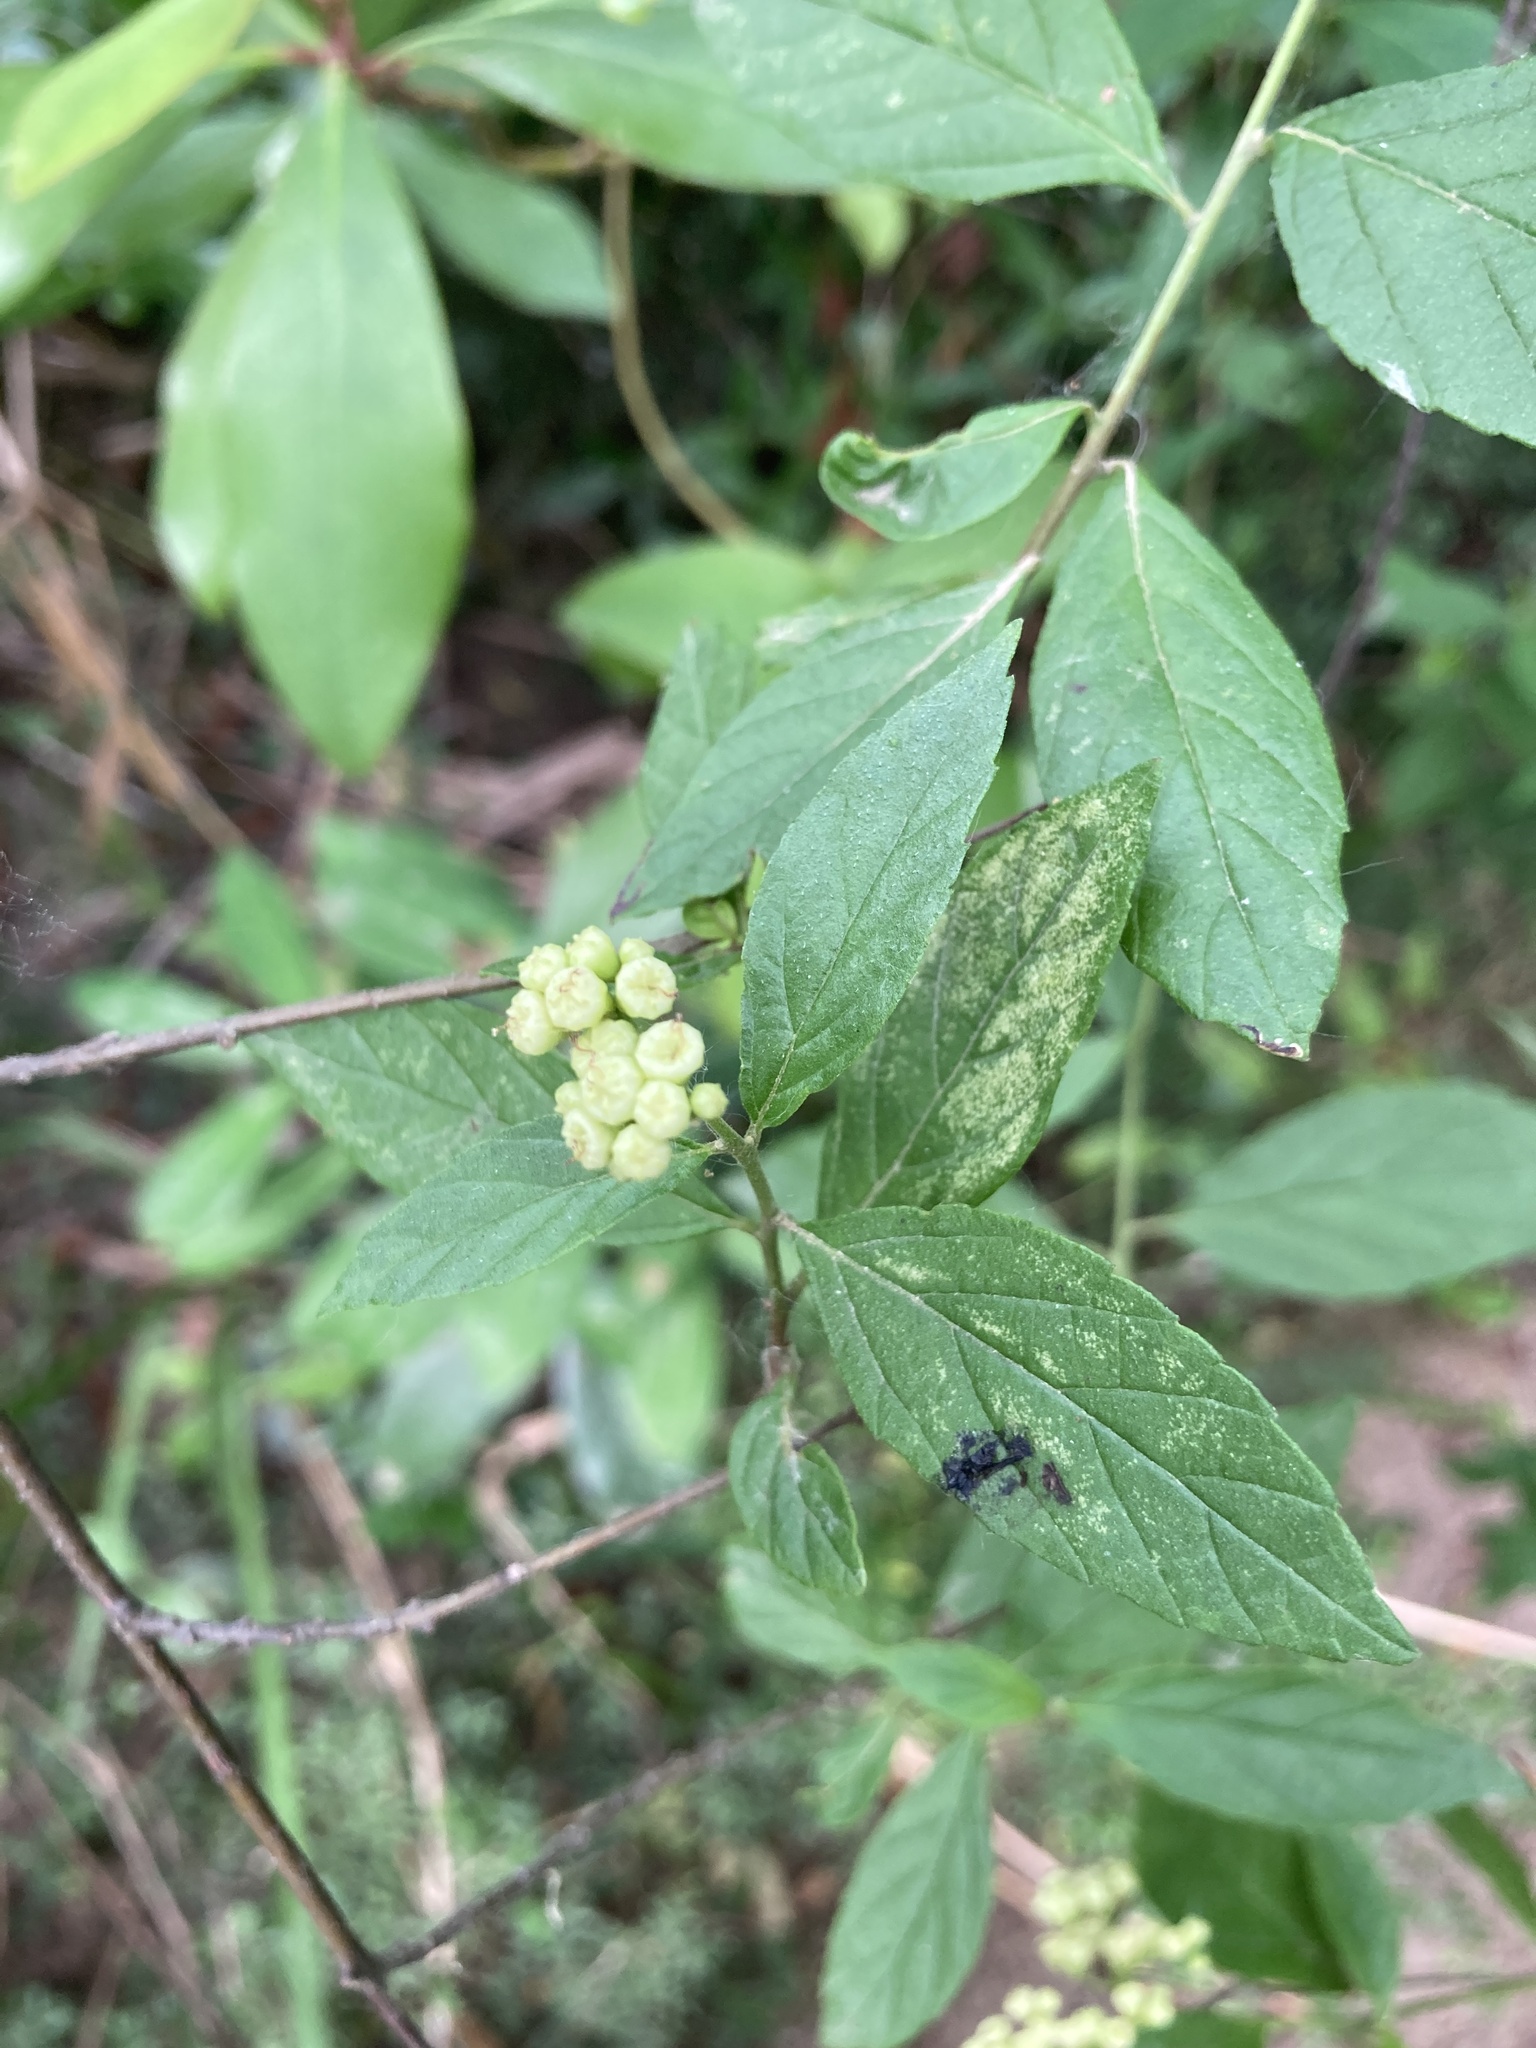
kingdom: Plantae
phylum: Tracheophyta
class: Magnoliopsida
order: Boraginales
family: Cordiaceae
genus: Varronia
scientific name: Varronia dichotoma
